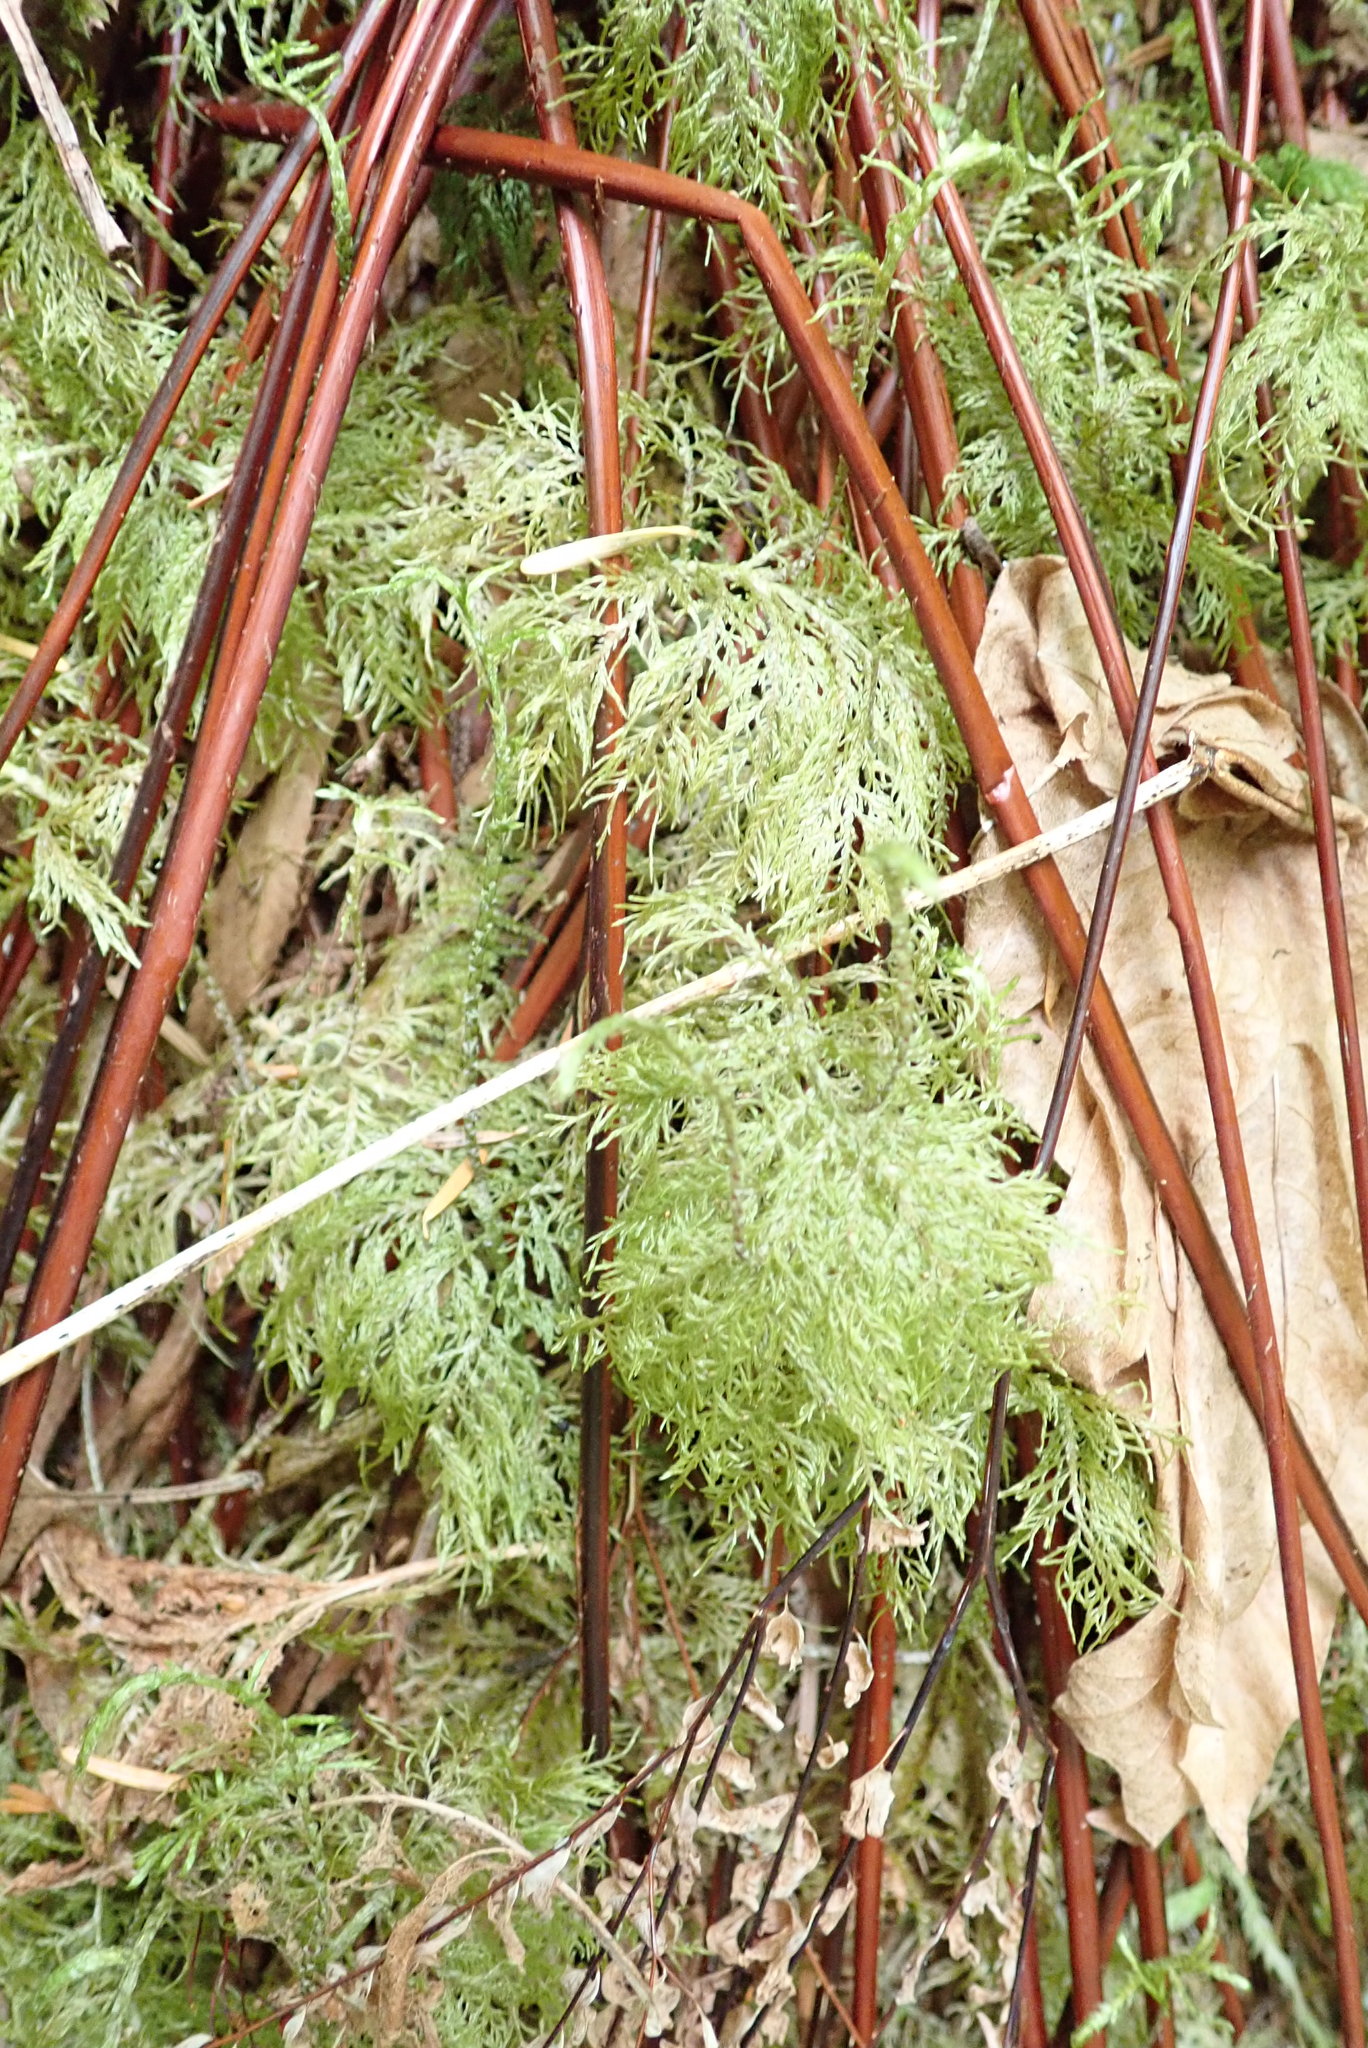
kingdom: Plantae
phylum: Bryophyta
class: Bryopsida
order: Hypnales
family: Hylocomiaceae
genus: Hylocomium
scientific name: Hylocomium splendens
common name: Stairstep moss
